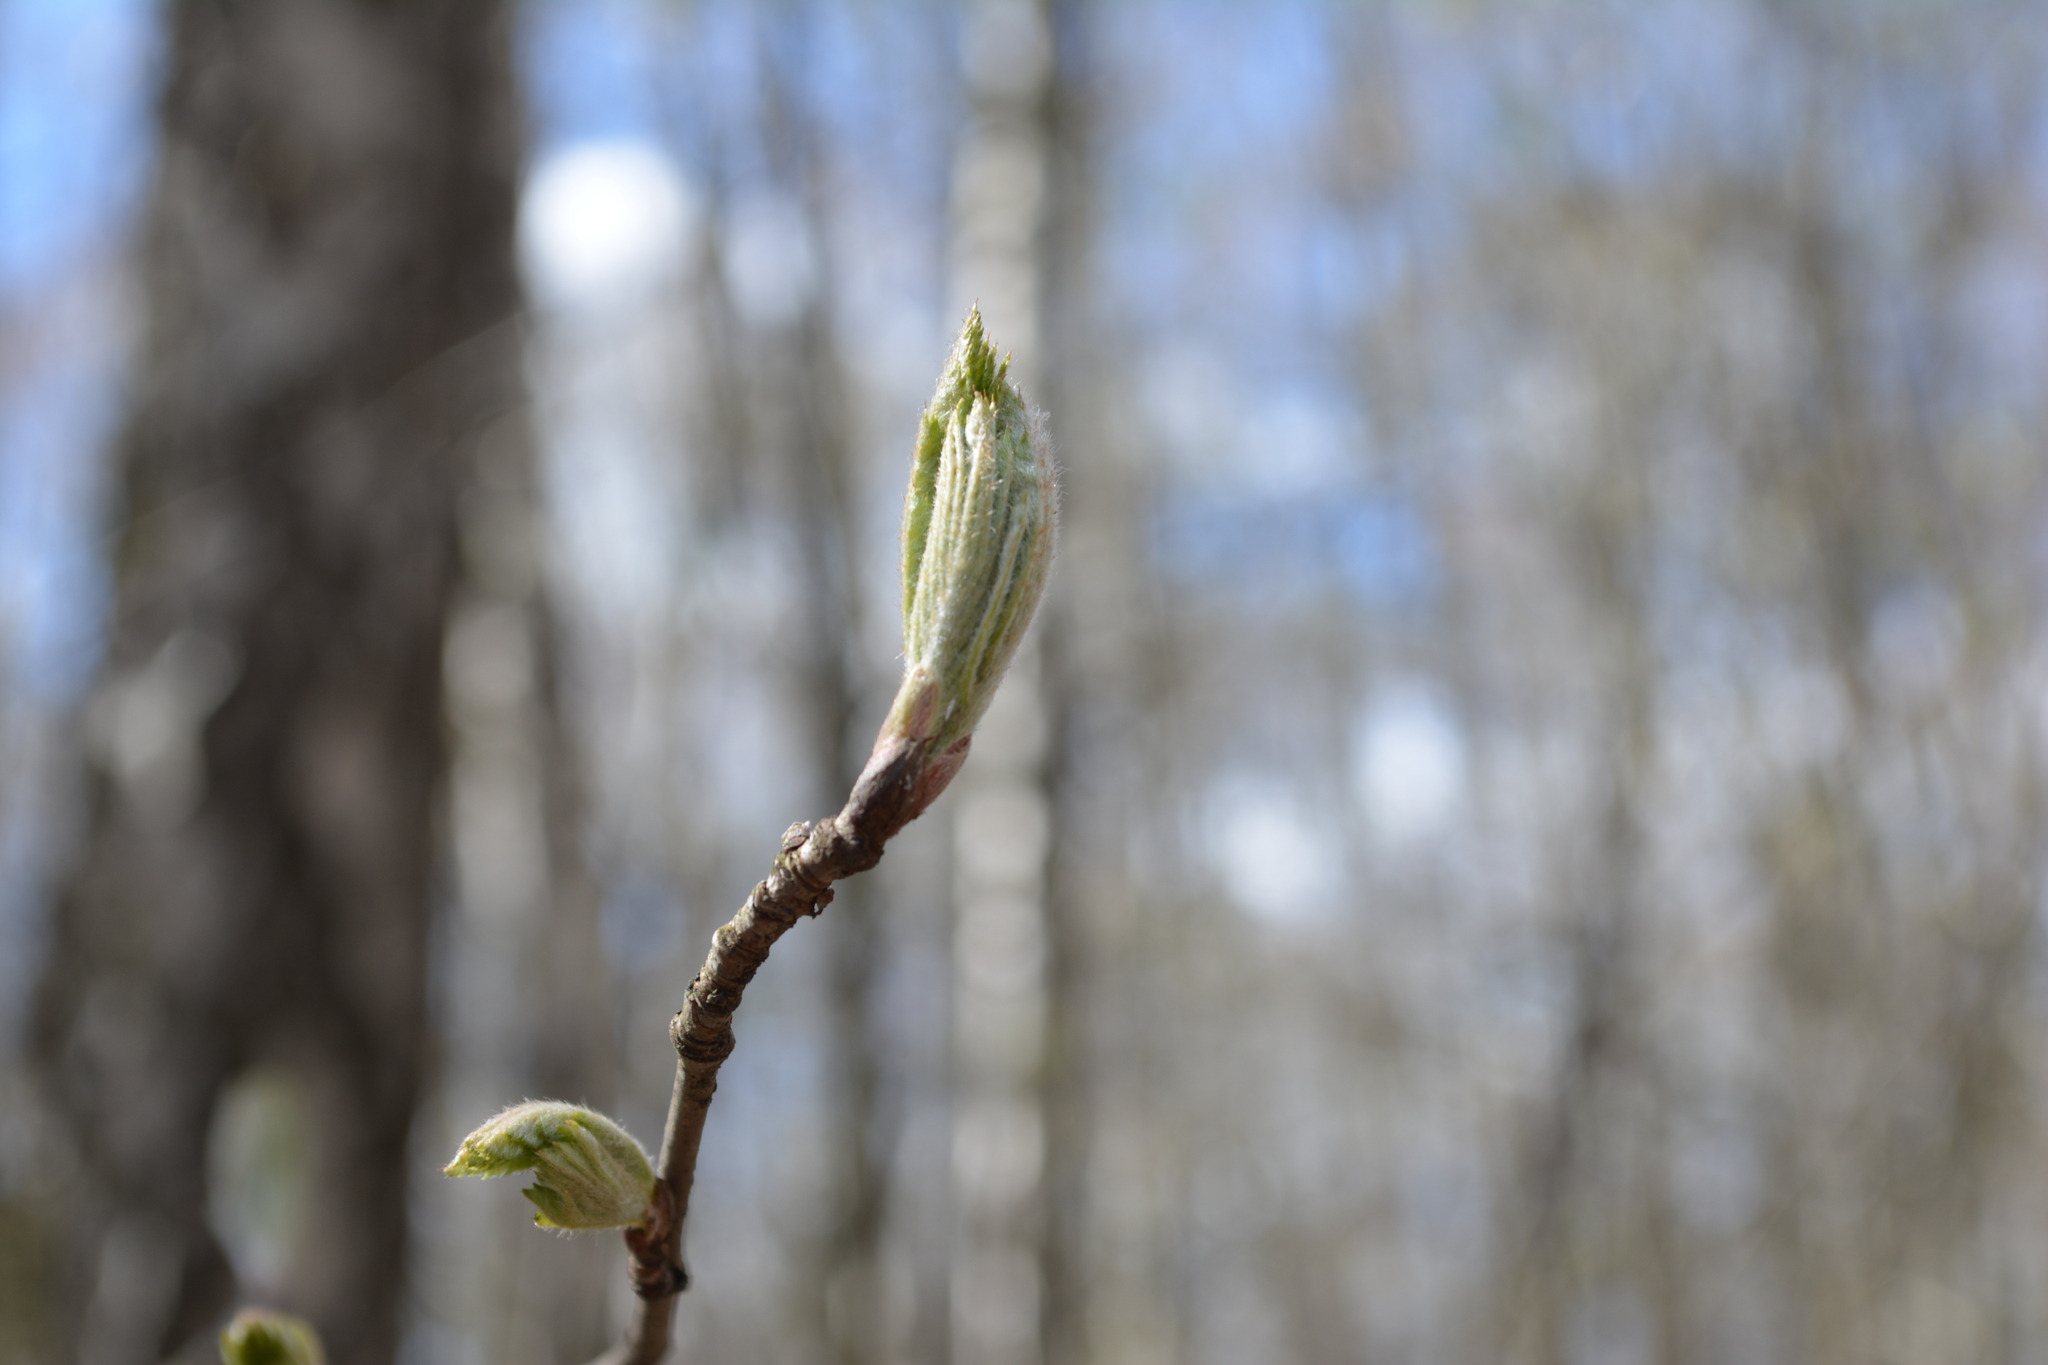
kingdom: Plantae
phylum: Tracheophyta
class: Magnoliopsida
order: Rosales
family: Rosaceae
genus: Sorbus
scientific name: Sorbus aucuparia
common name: Rowan
